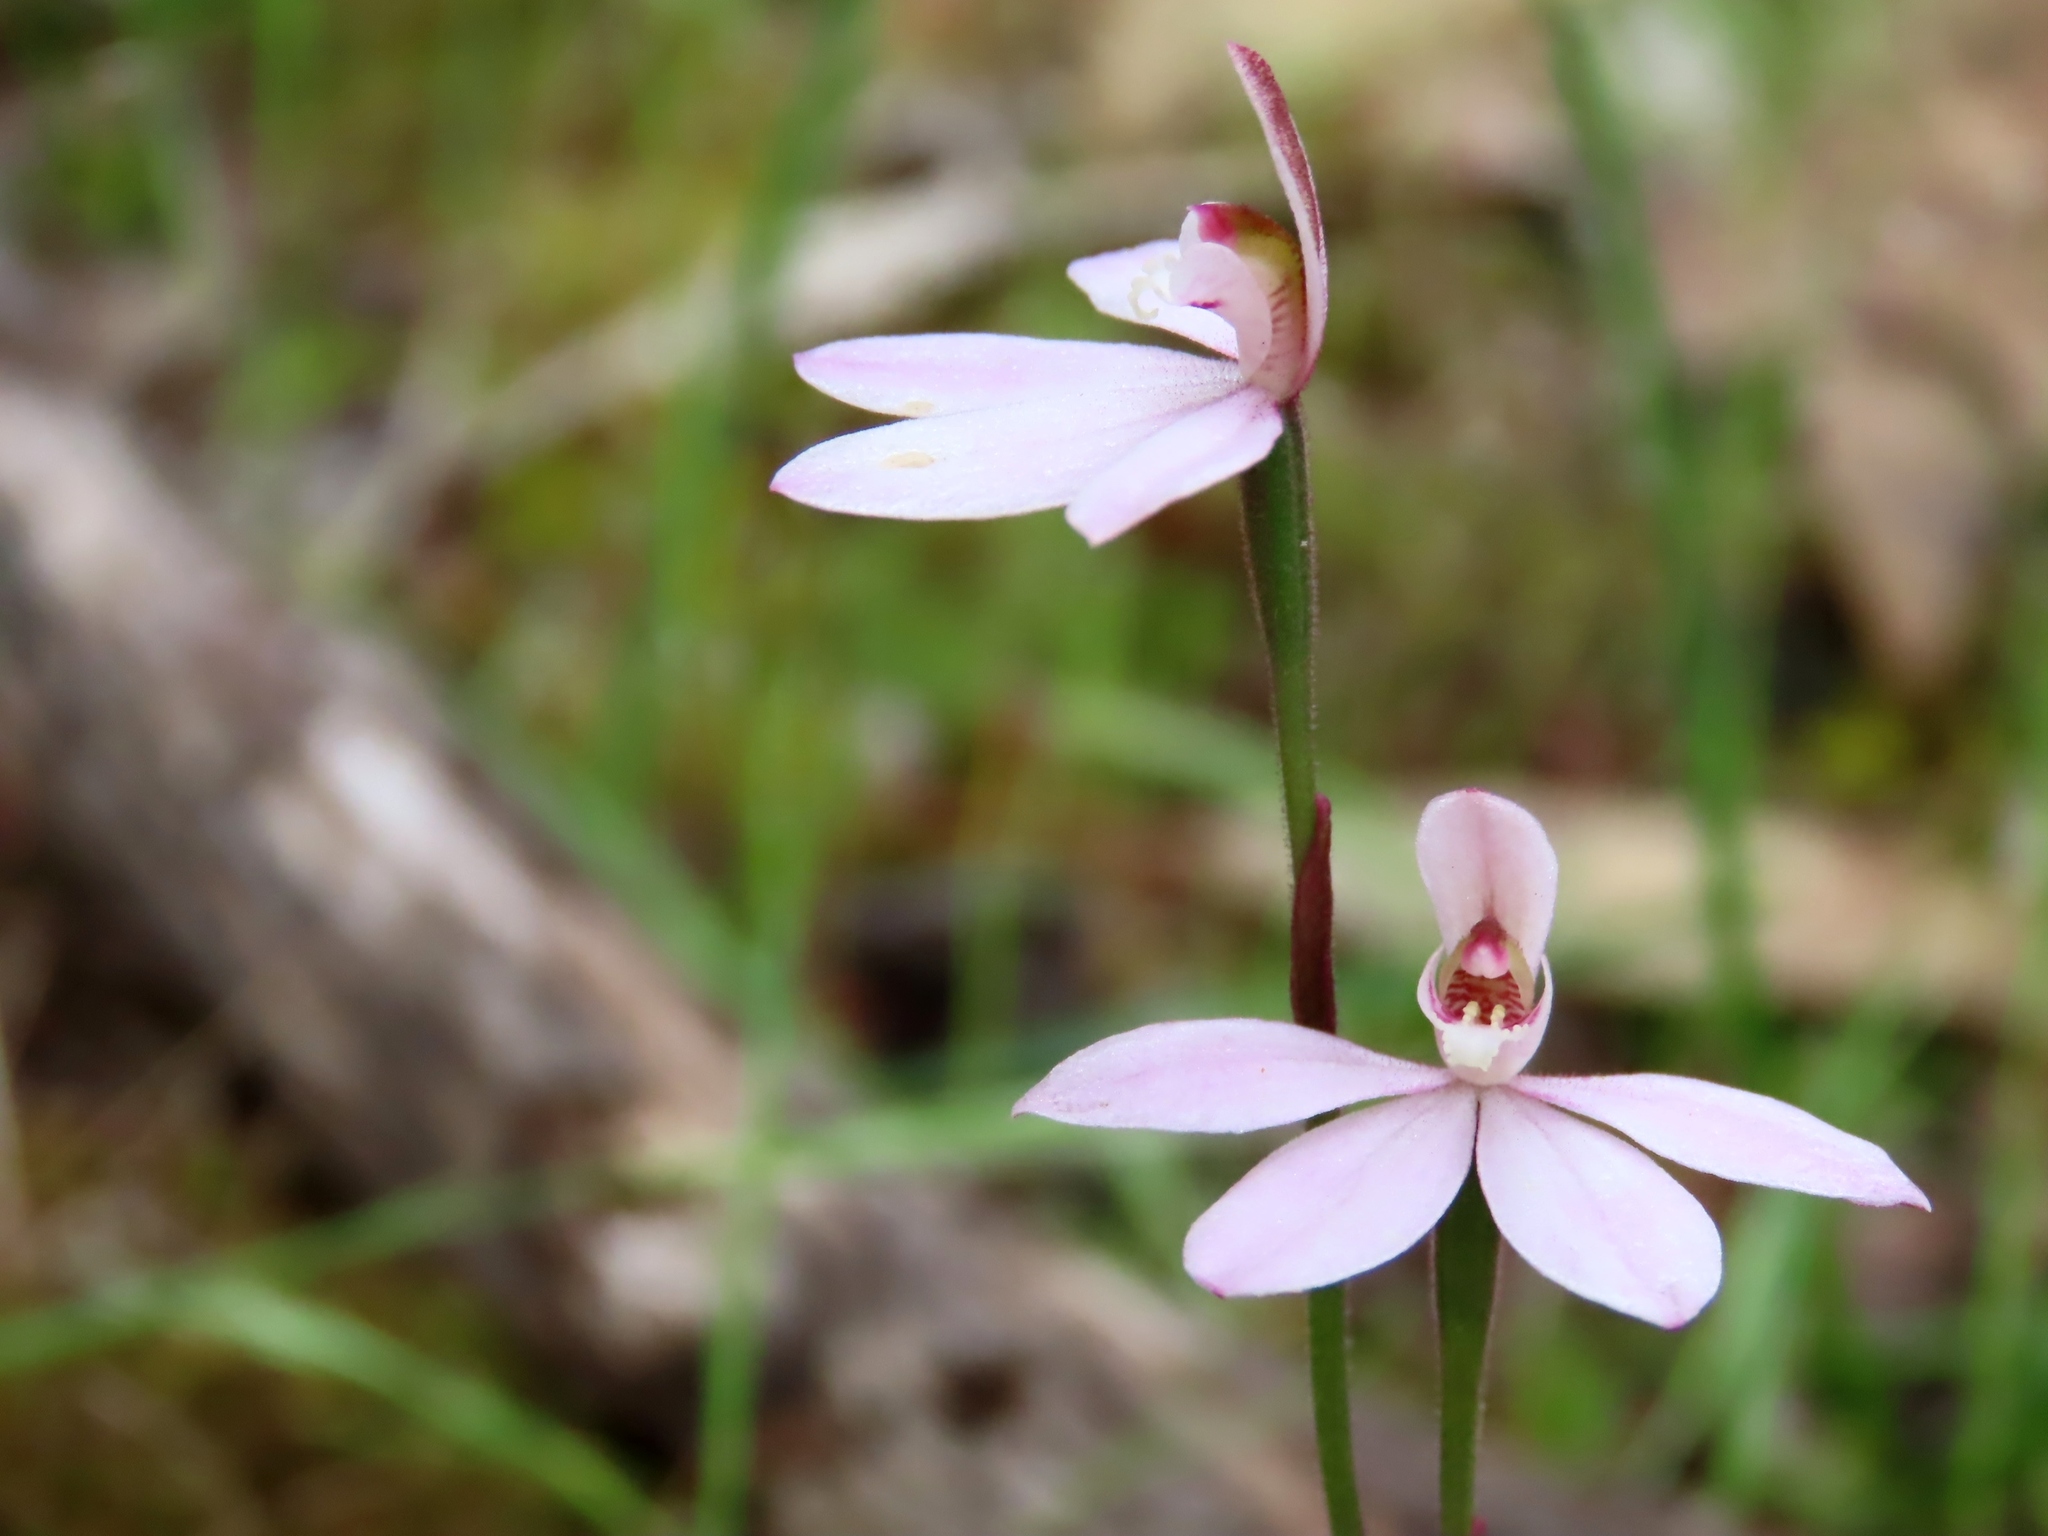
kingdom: Plantae
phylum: Tracheophyta
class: Liliopsida
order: Asparagales
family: Orchidaceae
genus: Caladenia
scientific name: Caladenia carnea
